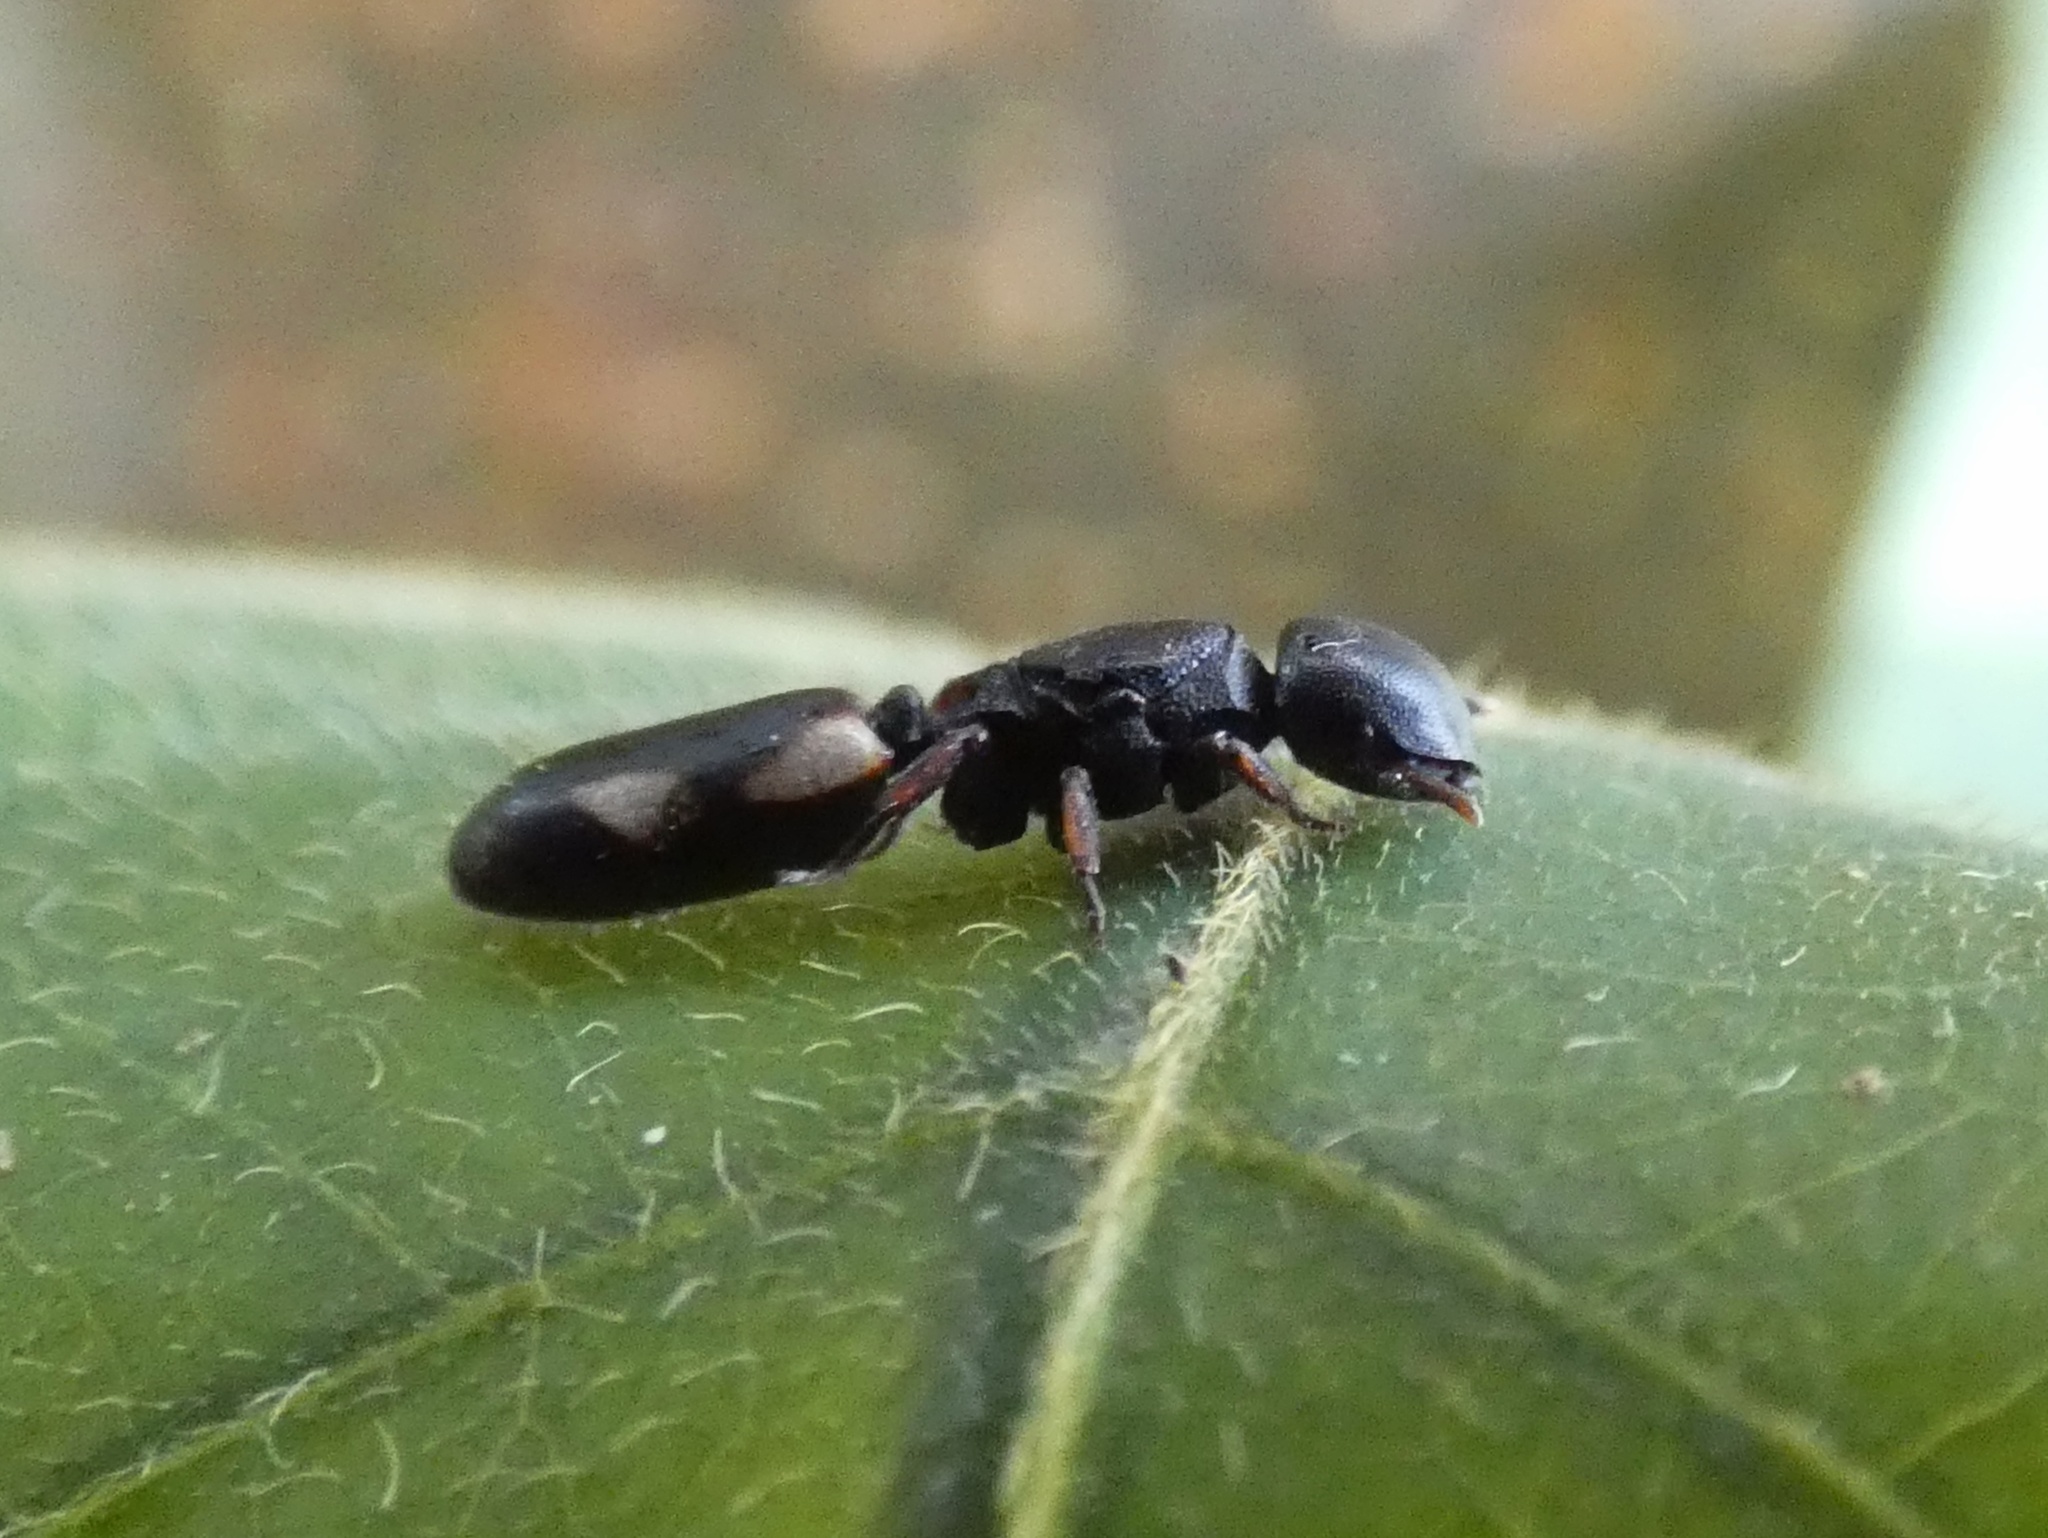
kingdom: Animalia
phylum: Arthropoda
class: Insecta
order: Hymenoptera
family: Formicidae
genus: Cephalotes
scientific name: Cephalotes minutus
